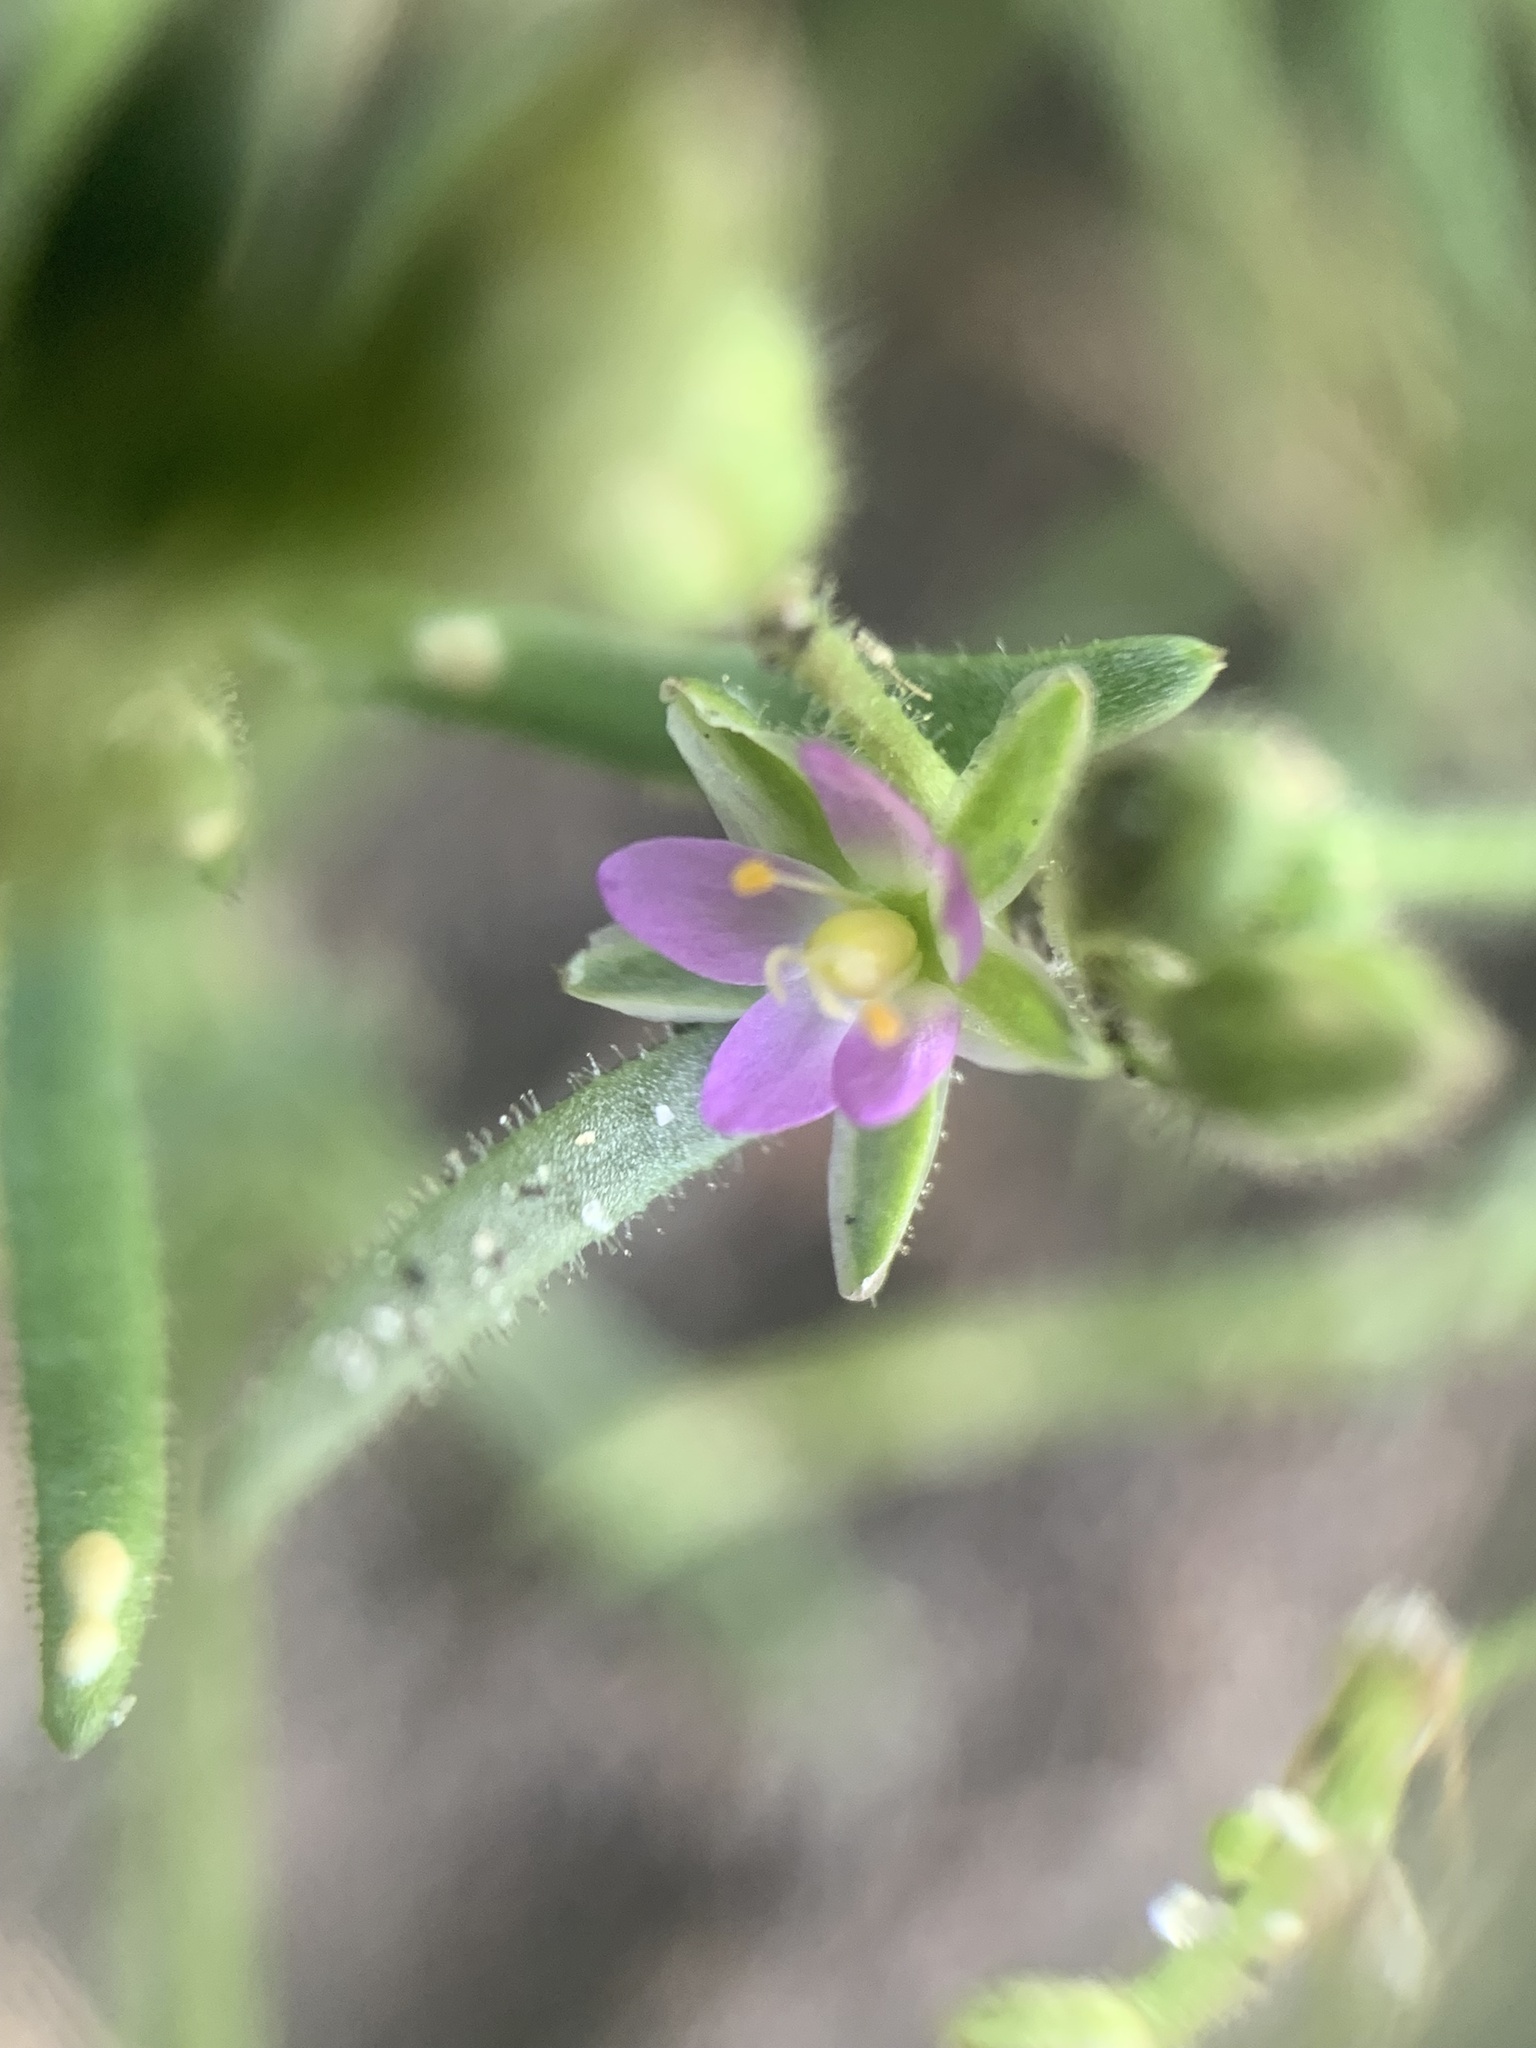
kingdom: Plantae
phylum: Tracheophyta
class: Magnoliopsida
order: Caryophyllales
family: Caryophyllaceae
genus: Spergularia
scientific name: Spergularia marina
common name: Lesser sea-spurrey
